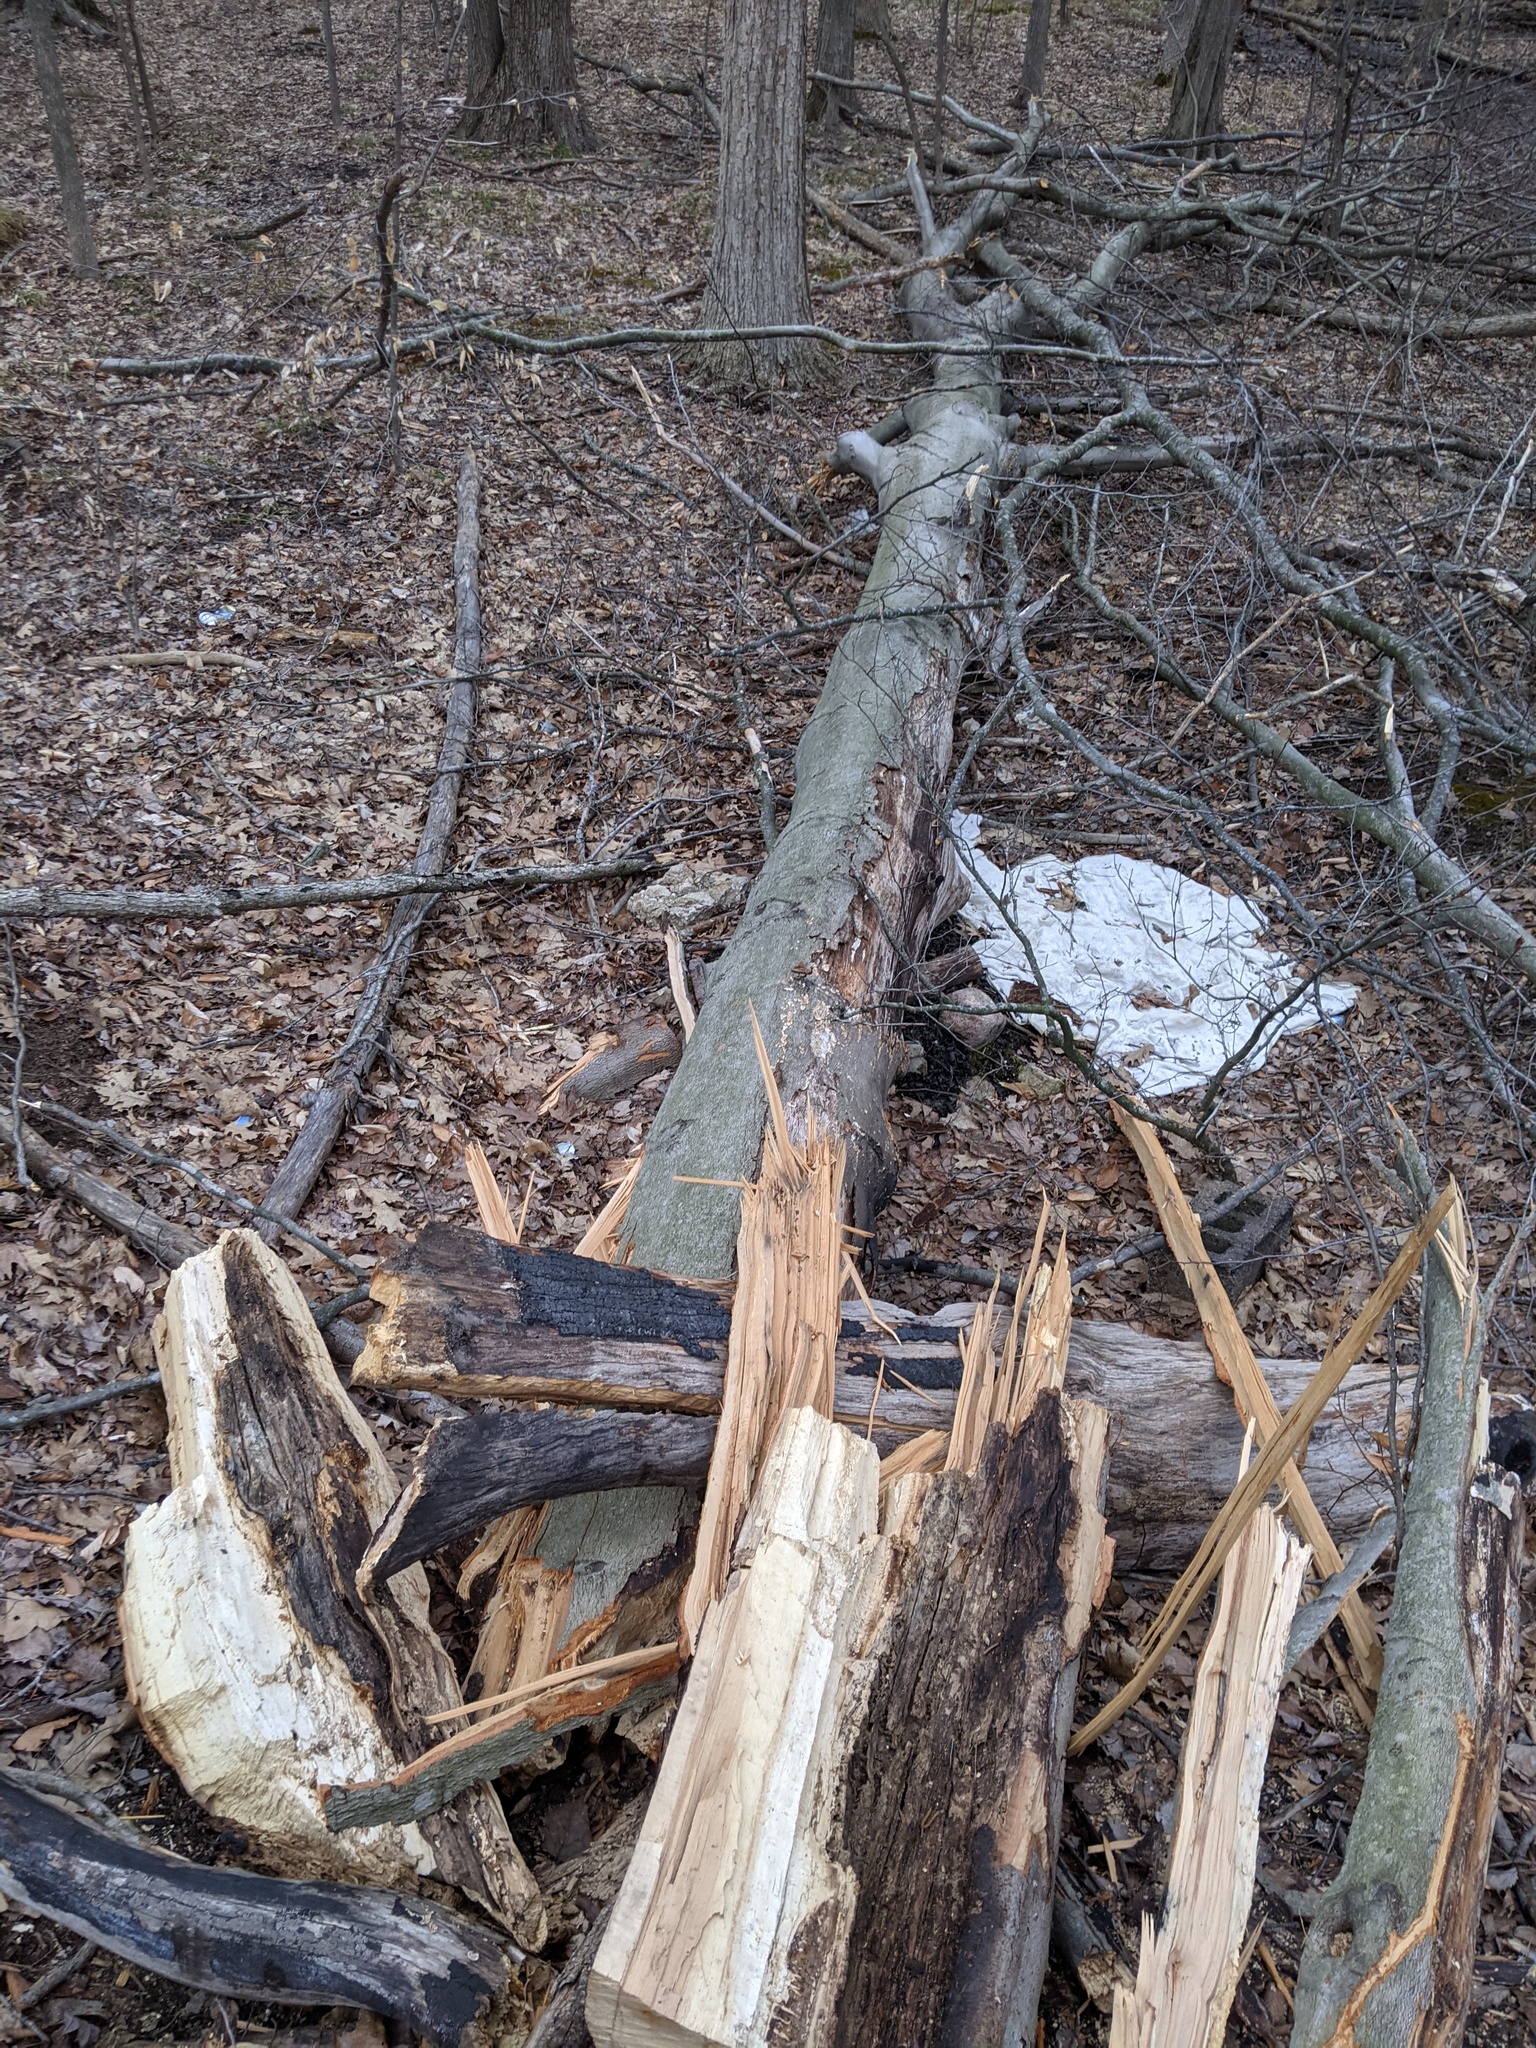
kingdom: Plantae
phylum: Tracheophyta
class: Magnoliopsida
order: Fagales
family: Fagaceae
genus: Fagus
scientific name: Fagus grandifolia
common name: American beech
